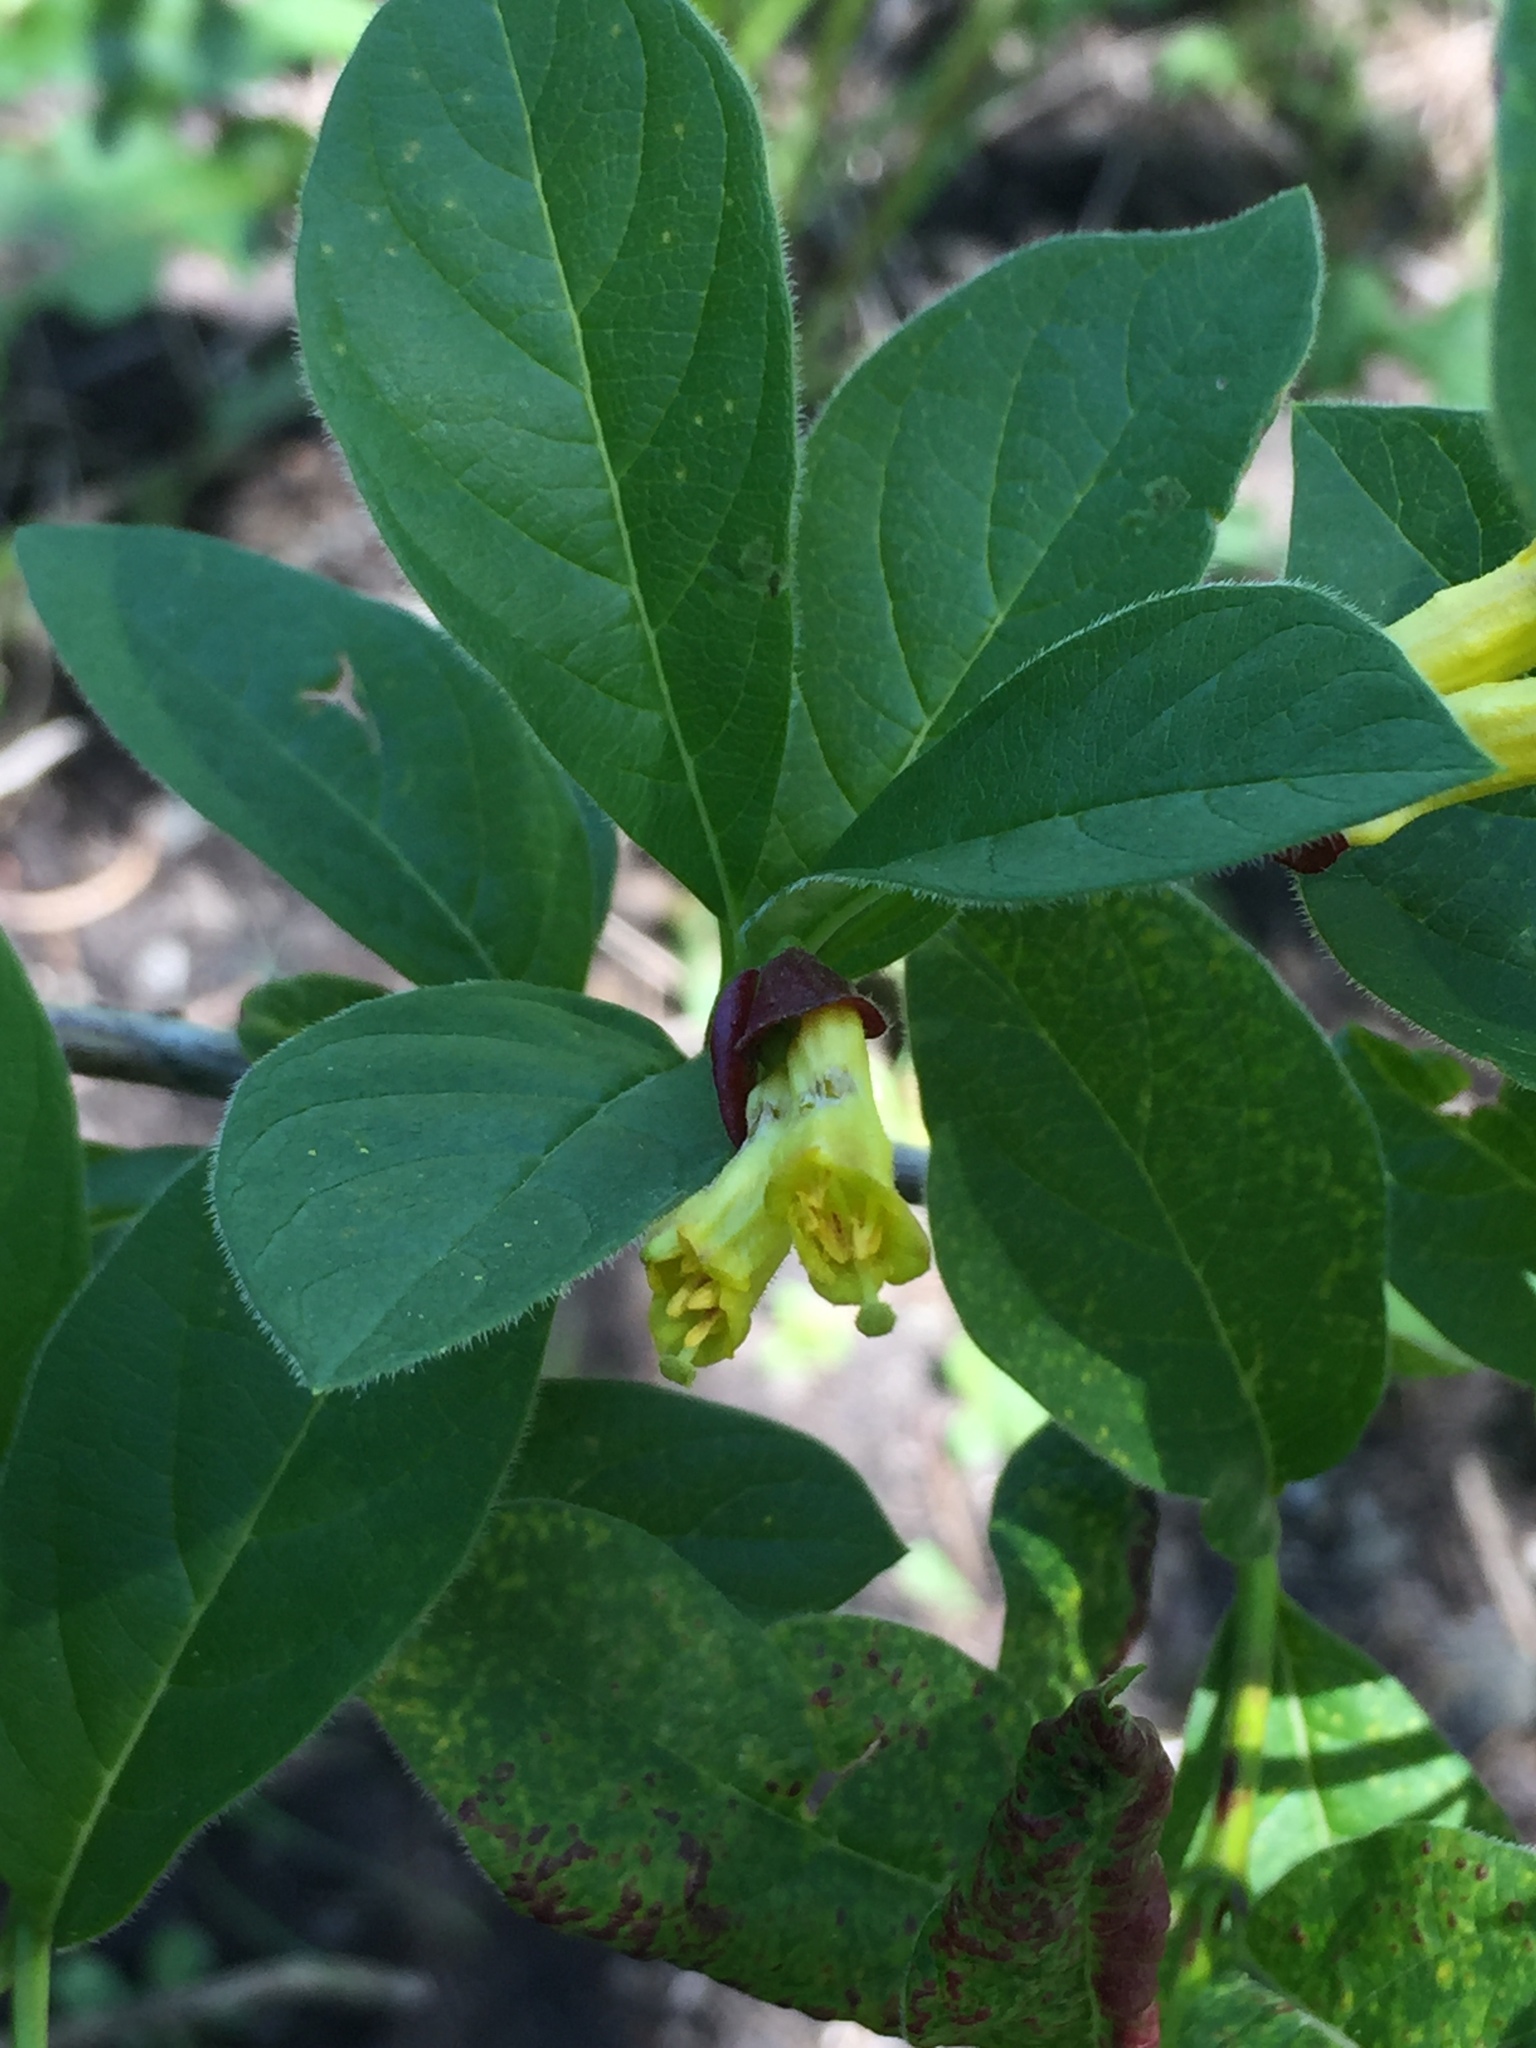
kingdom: Plantae
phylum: Tracheophyta
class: Magnoliopsida
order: Dipsacales
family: Caprifoliaceae
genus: Lonicera
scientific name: Lonicera involucrata
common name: Californian honeysuckle
